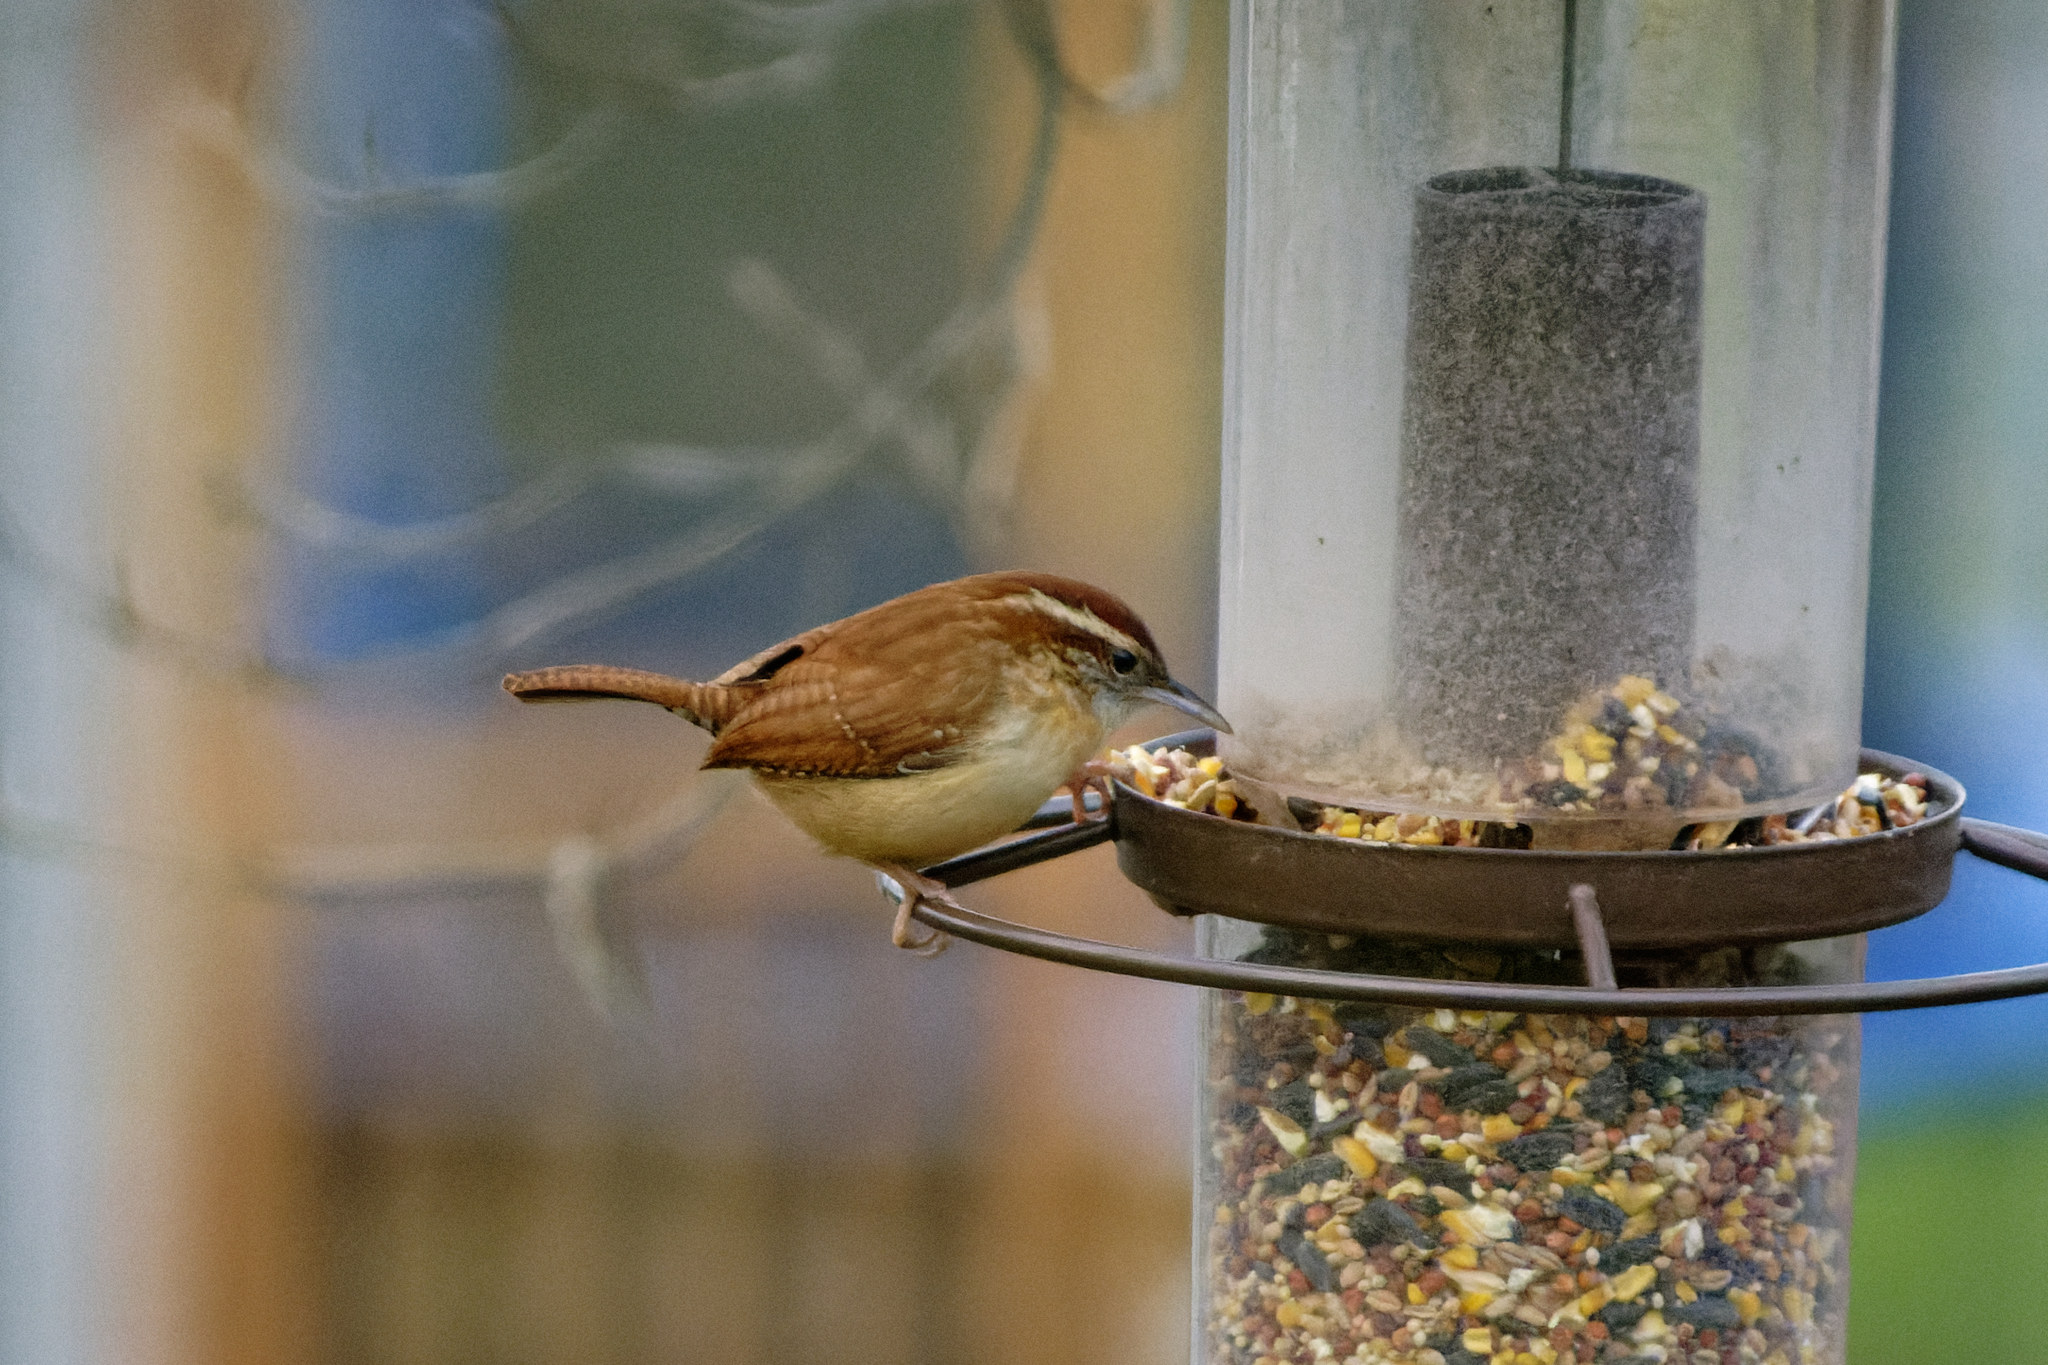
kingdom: Animalia
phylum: Chordata
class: Aves
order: Passeriformes
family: Troglodytidae
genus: Thryothorus
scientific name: Thryothorus ludovicianus
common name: Carolina wren
